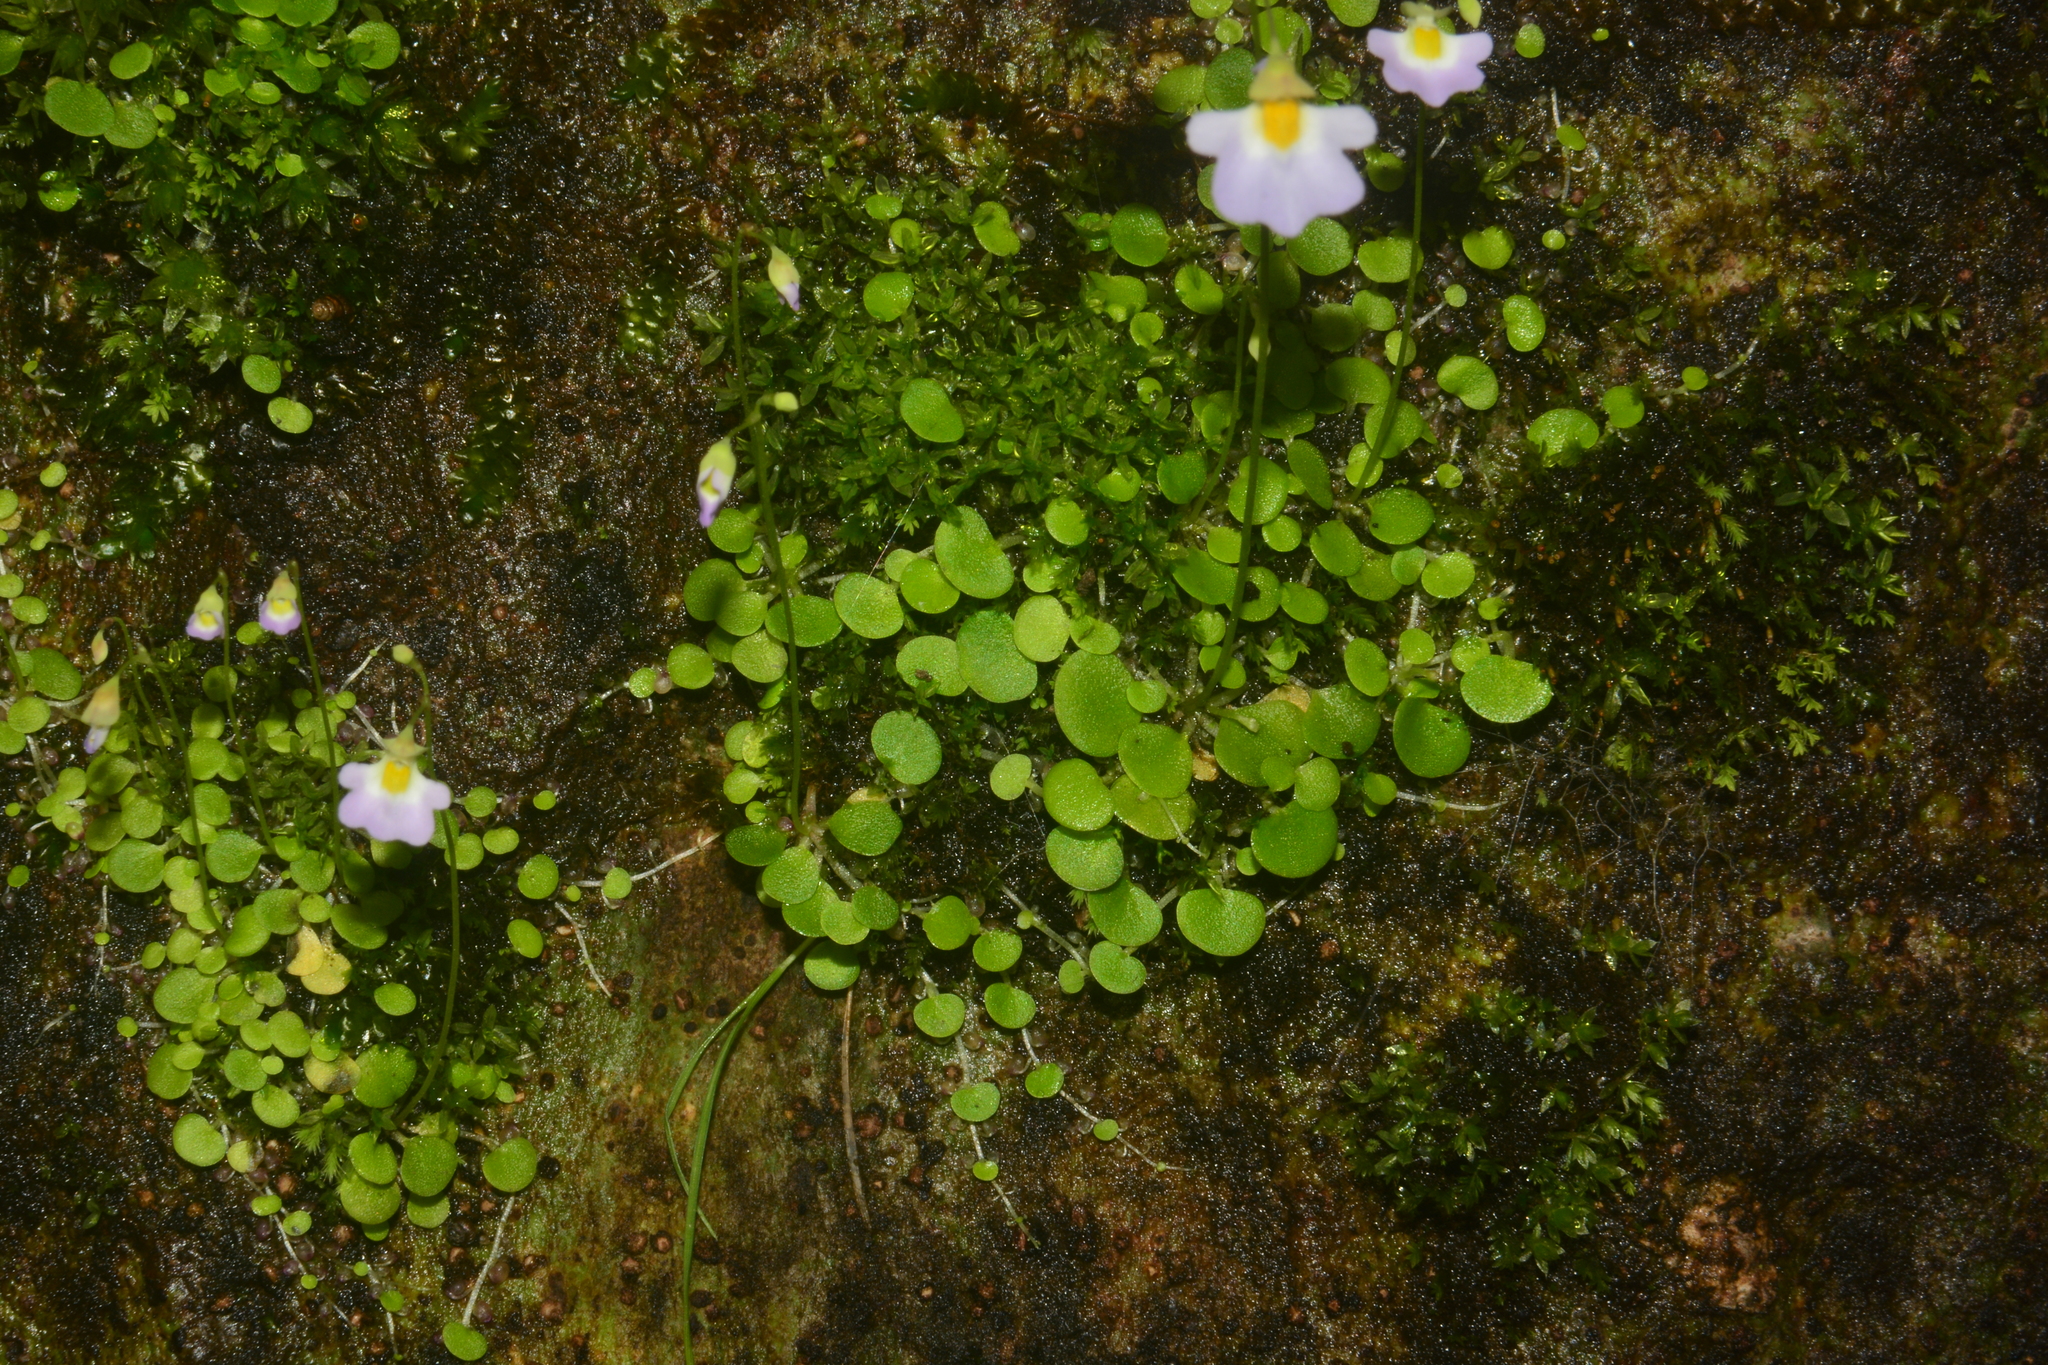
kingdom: Plantae
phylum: Tracheophyta
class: Magnoliopsida
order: Lamiales
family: Lentibulariaceae
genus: Utricularia
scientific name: Utricularia striatula
